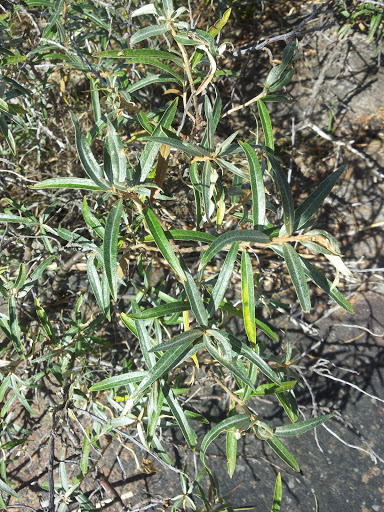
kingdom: Plantae
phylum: Tracheophyta
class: Magnoliopsida
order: Rosales
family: Elaeagnaceae
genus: Hippophae
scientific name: Hippophae rhamnoides
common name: Sea-buckthorn
